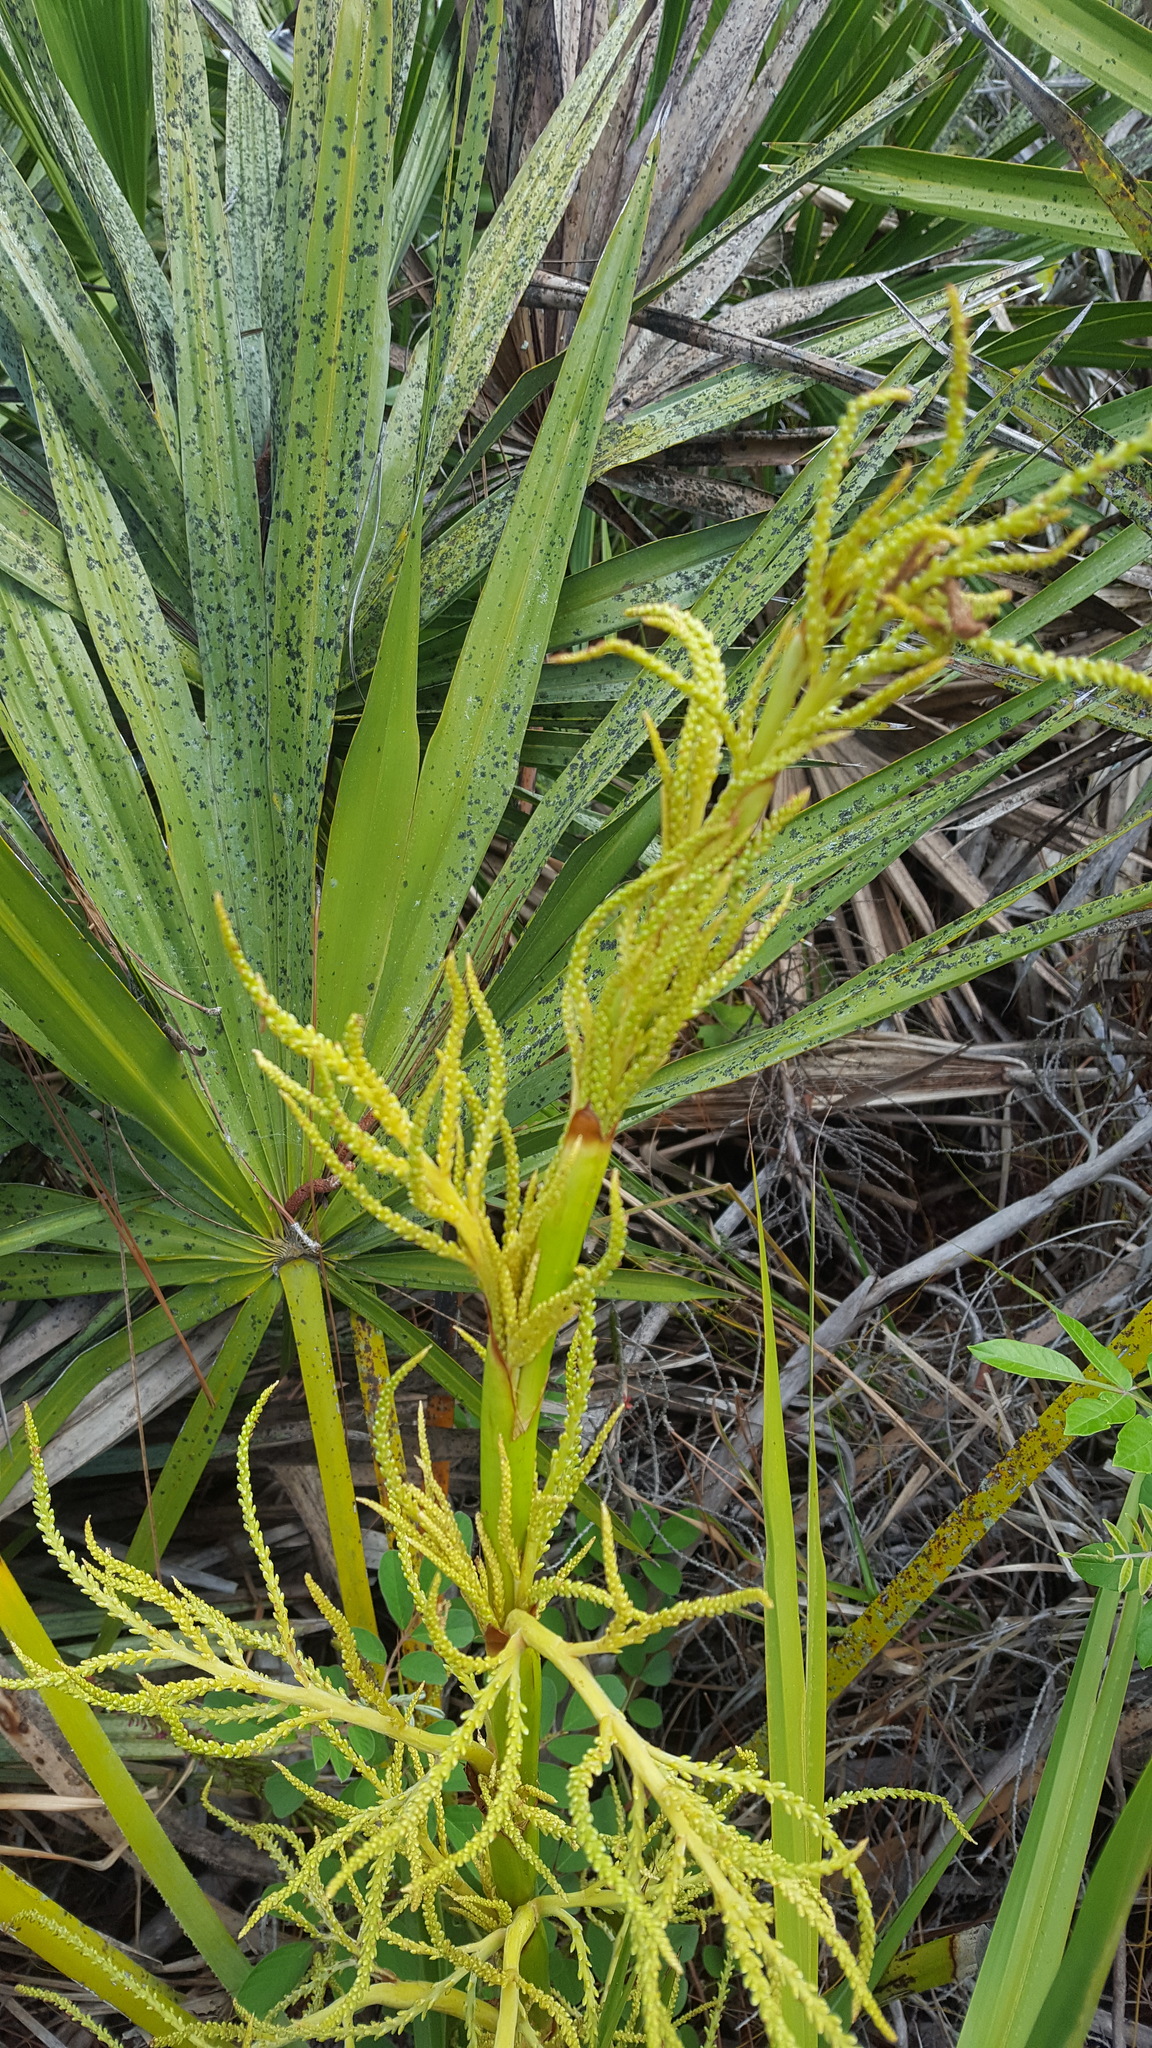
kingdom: Plantae
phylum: Tracheophyta
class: Liliopsida
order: Arecales
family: Arecaceae
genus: Serenoa
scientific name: Serenoa repens
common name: Saw-palmetto
